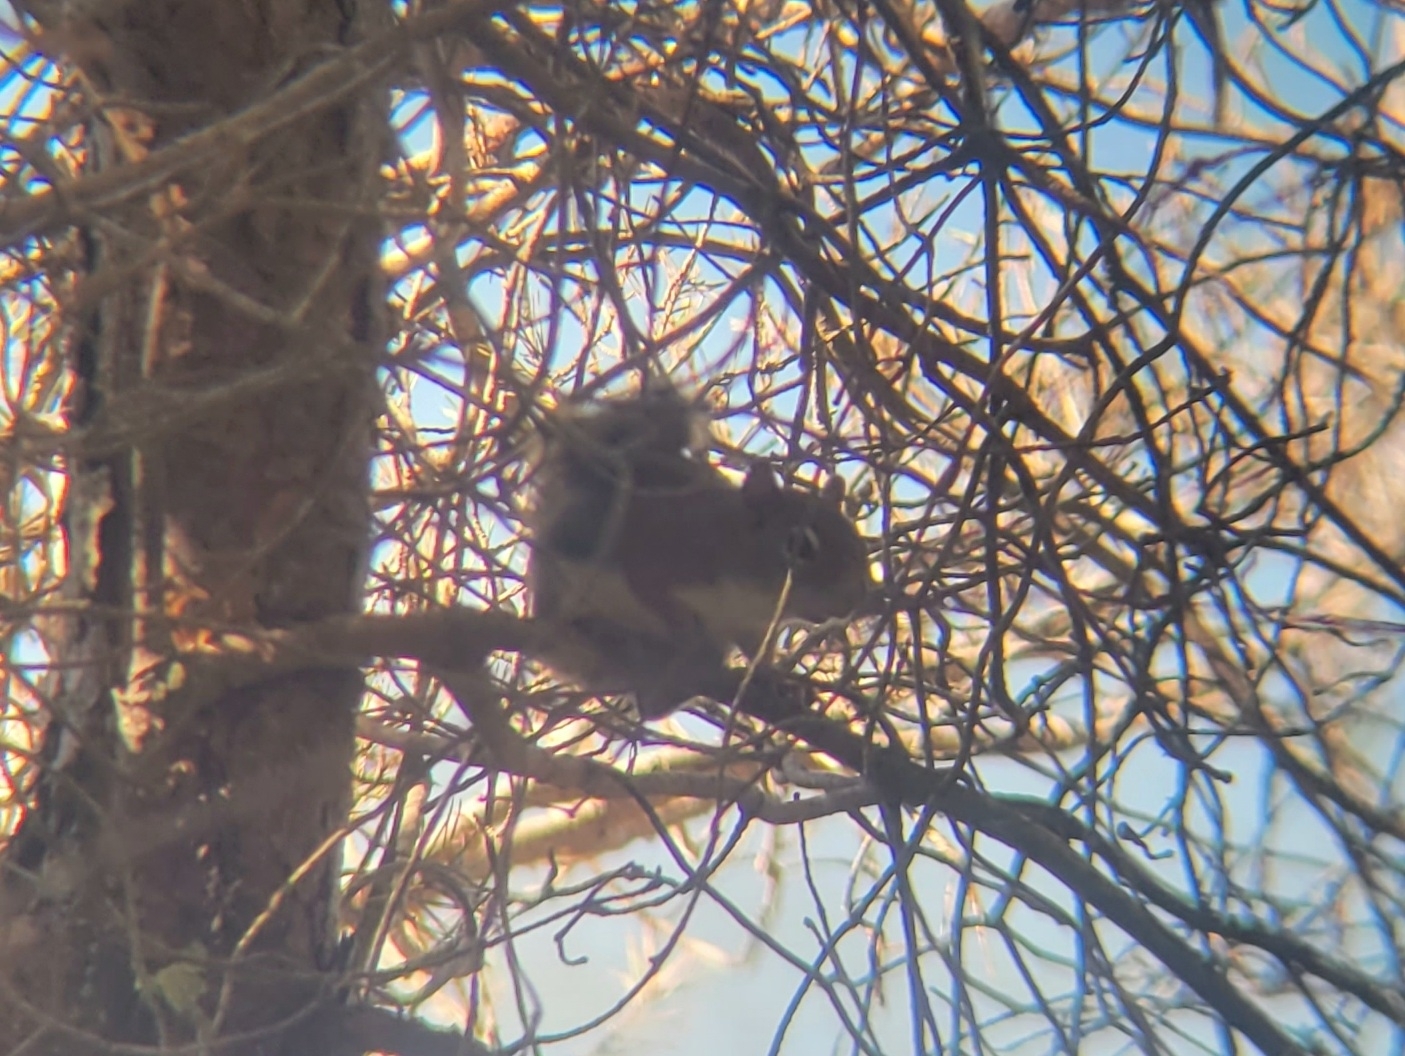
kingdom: Animalia
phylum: Chordata
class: Mammalia
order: Rodentia
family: Sciuridae
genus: Tamiasciurus
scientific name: Tamiasciurus hudsonicus
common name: Red squirrel
